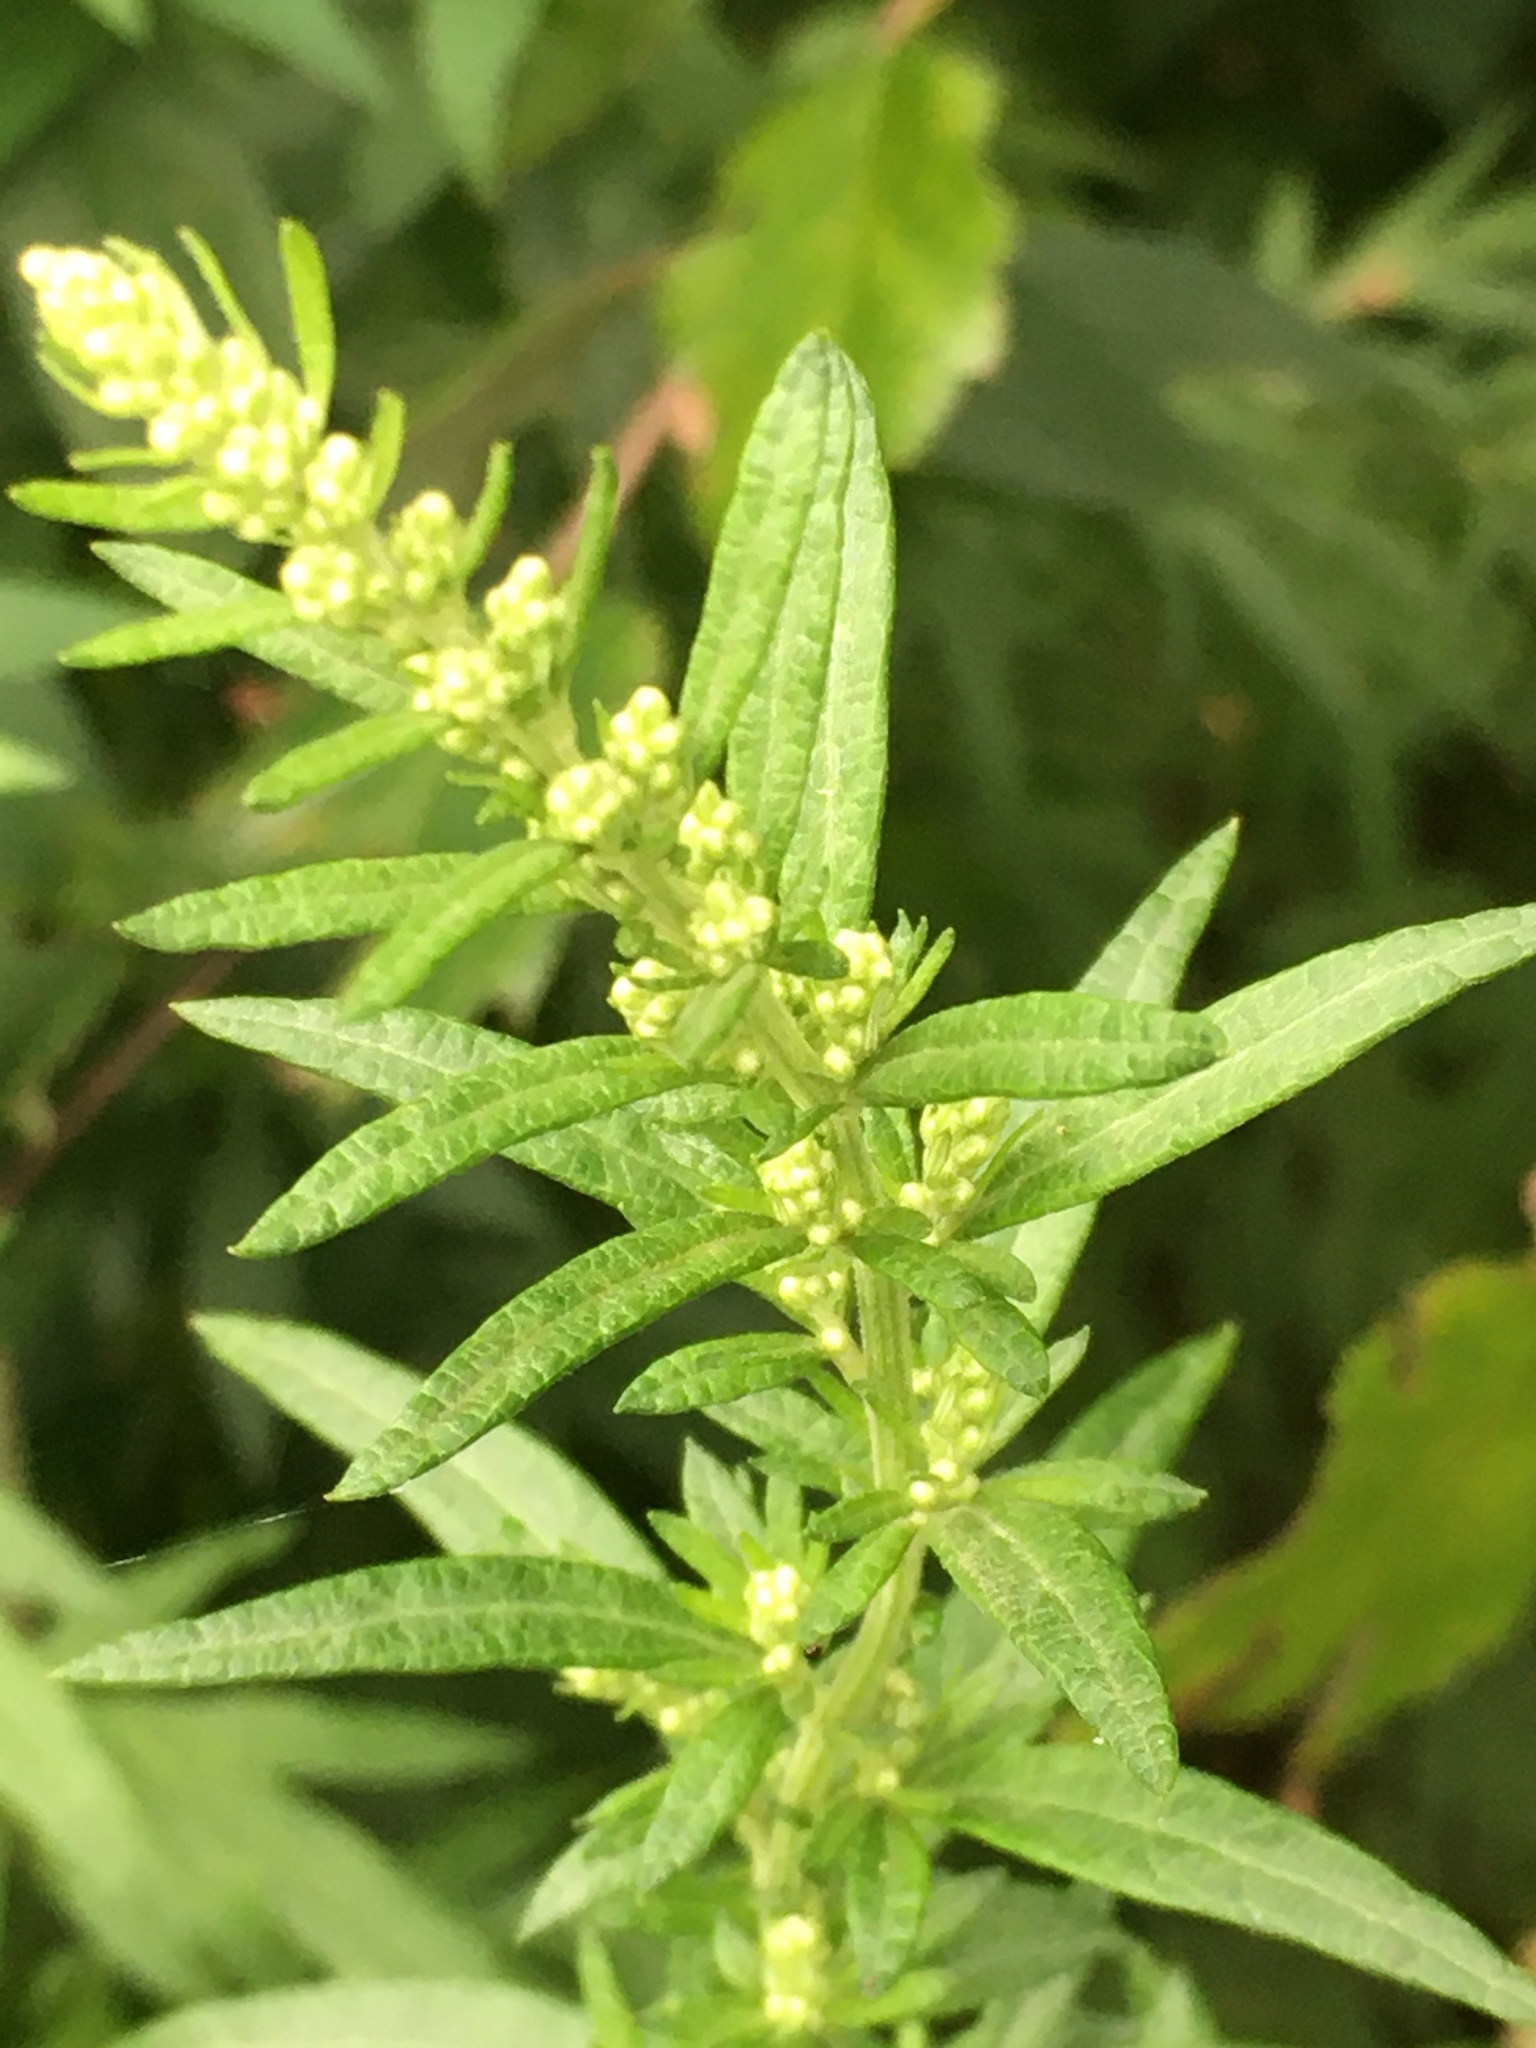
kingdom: Plantae
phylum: Tracheophyta
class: Magnoliopsida
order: Asterales
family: Asteraceae
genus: Artemisia
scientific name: Artemisia vulgaris
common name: Mugwort
